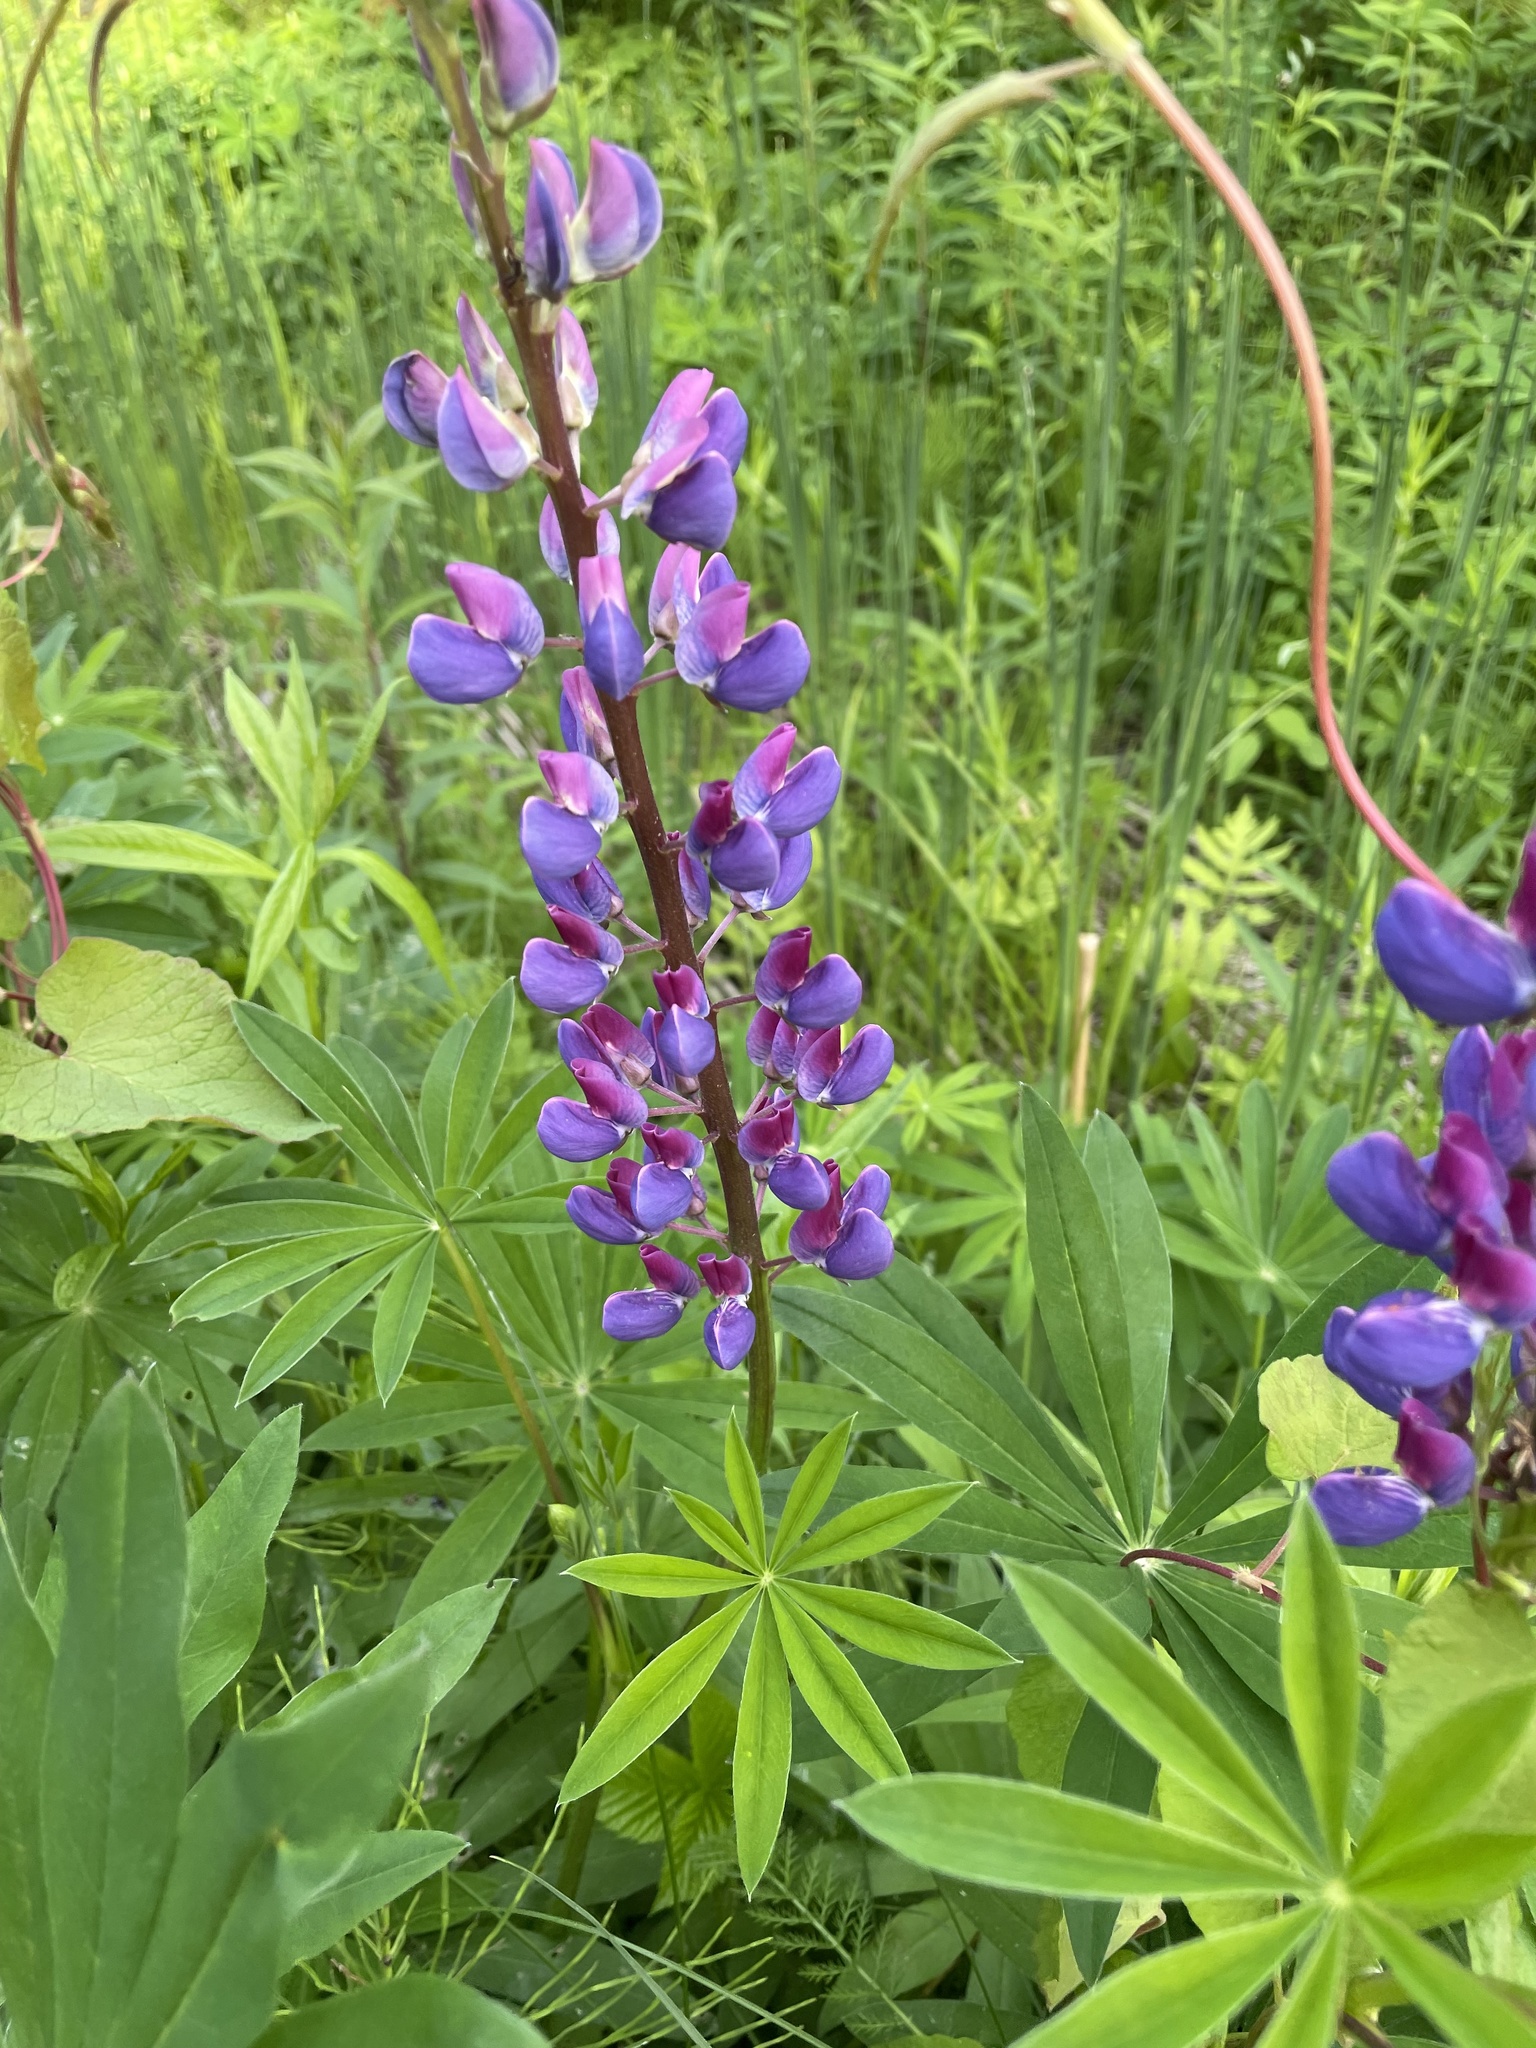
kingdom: Plantae
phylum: Tracheophyta
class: Magnoliopsida
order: Fabales
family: Fabaceae
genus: Lupinus
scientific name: Lupinus polyphyllus
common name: Garden lupin
